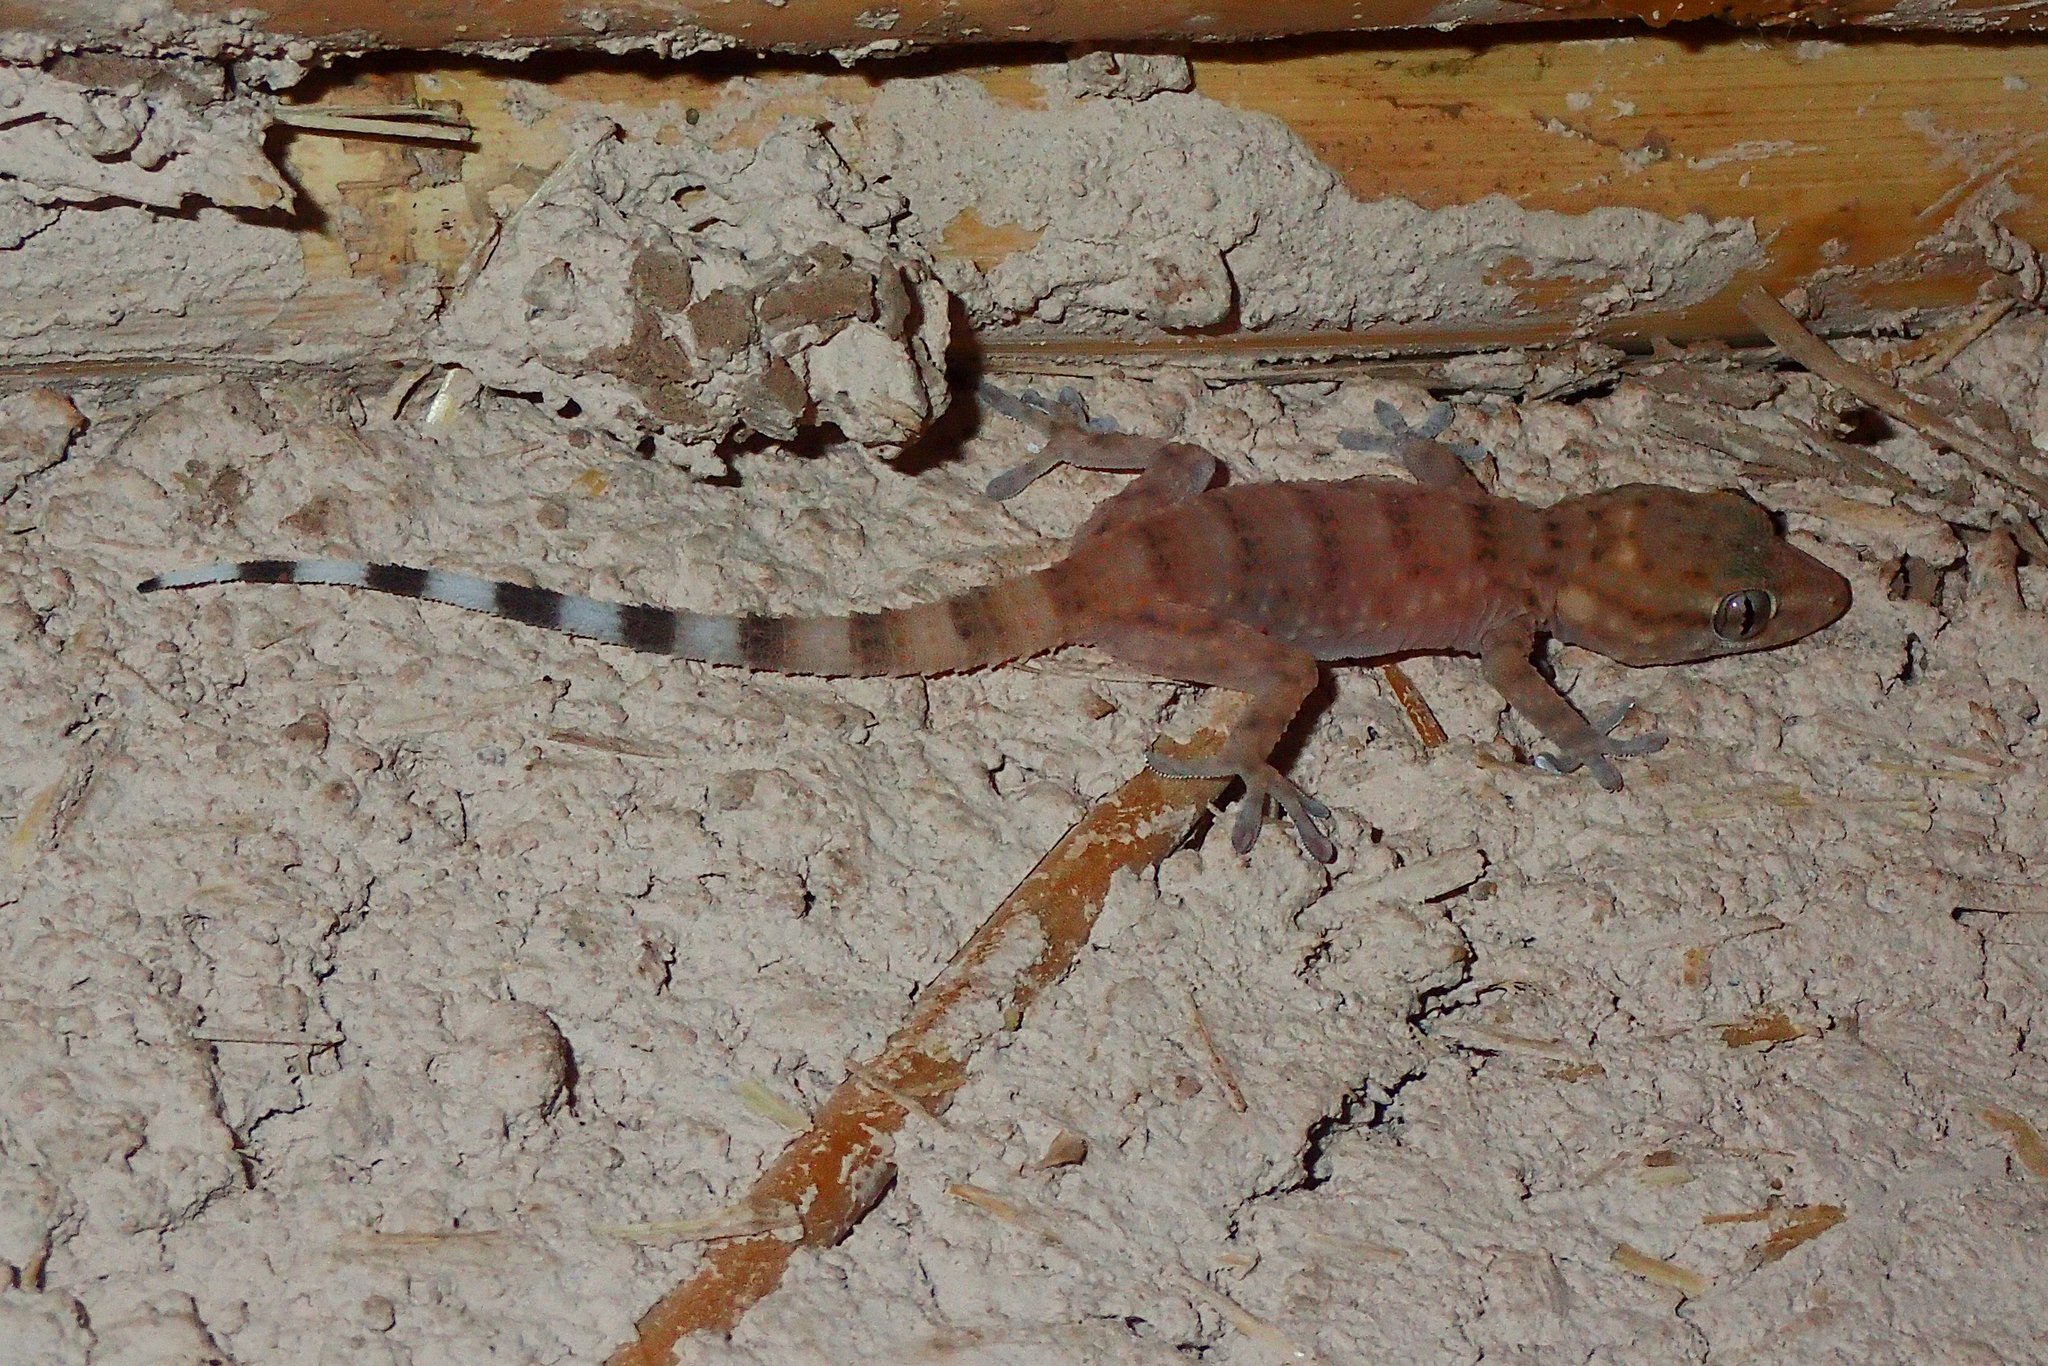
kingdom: Animalia
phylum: Chordata
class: Squamata
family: Phyllodactylidae
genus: Tarentola
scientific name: Tarentola boehmei
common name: Böhme's gecko
